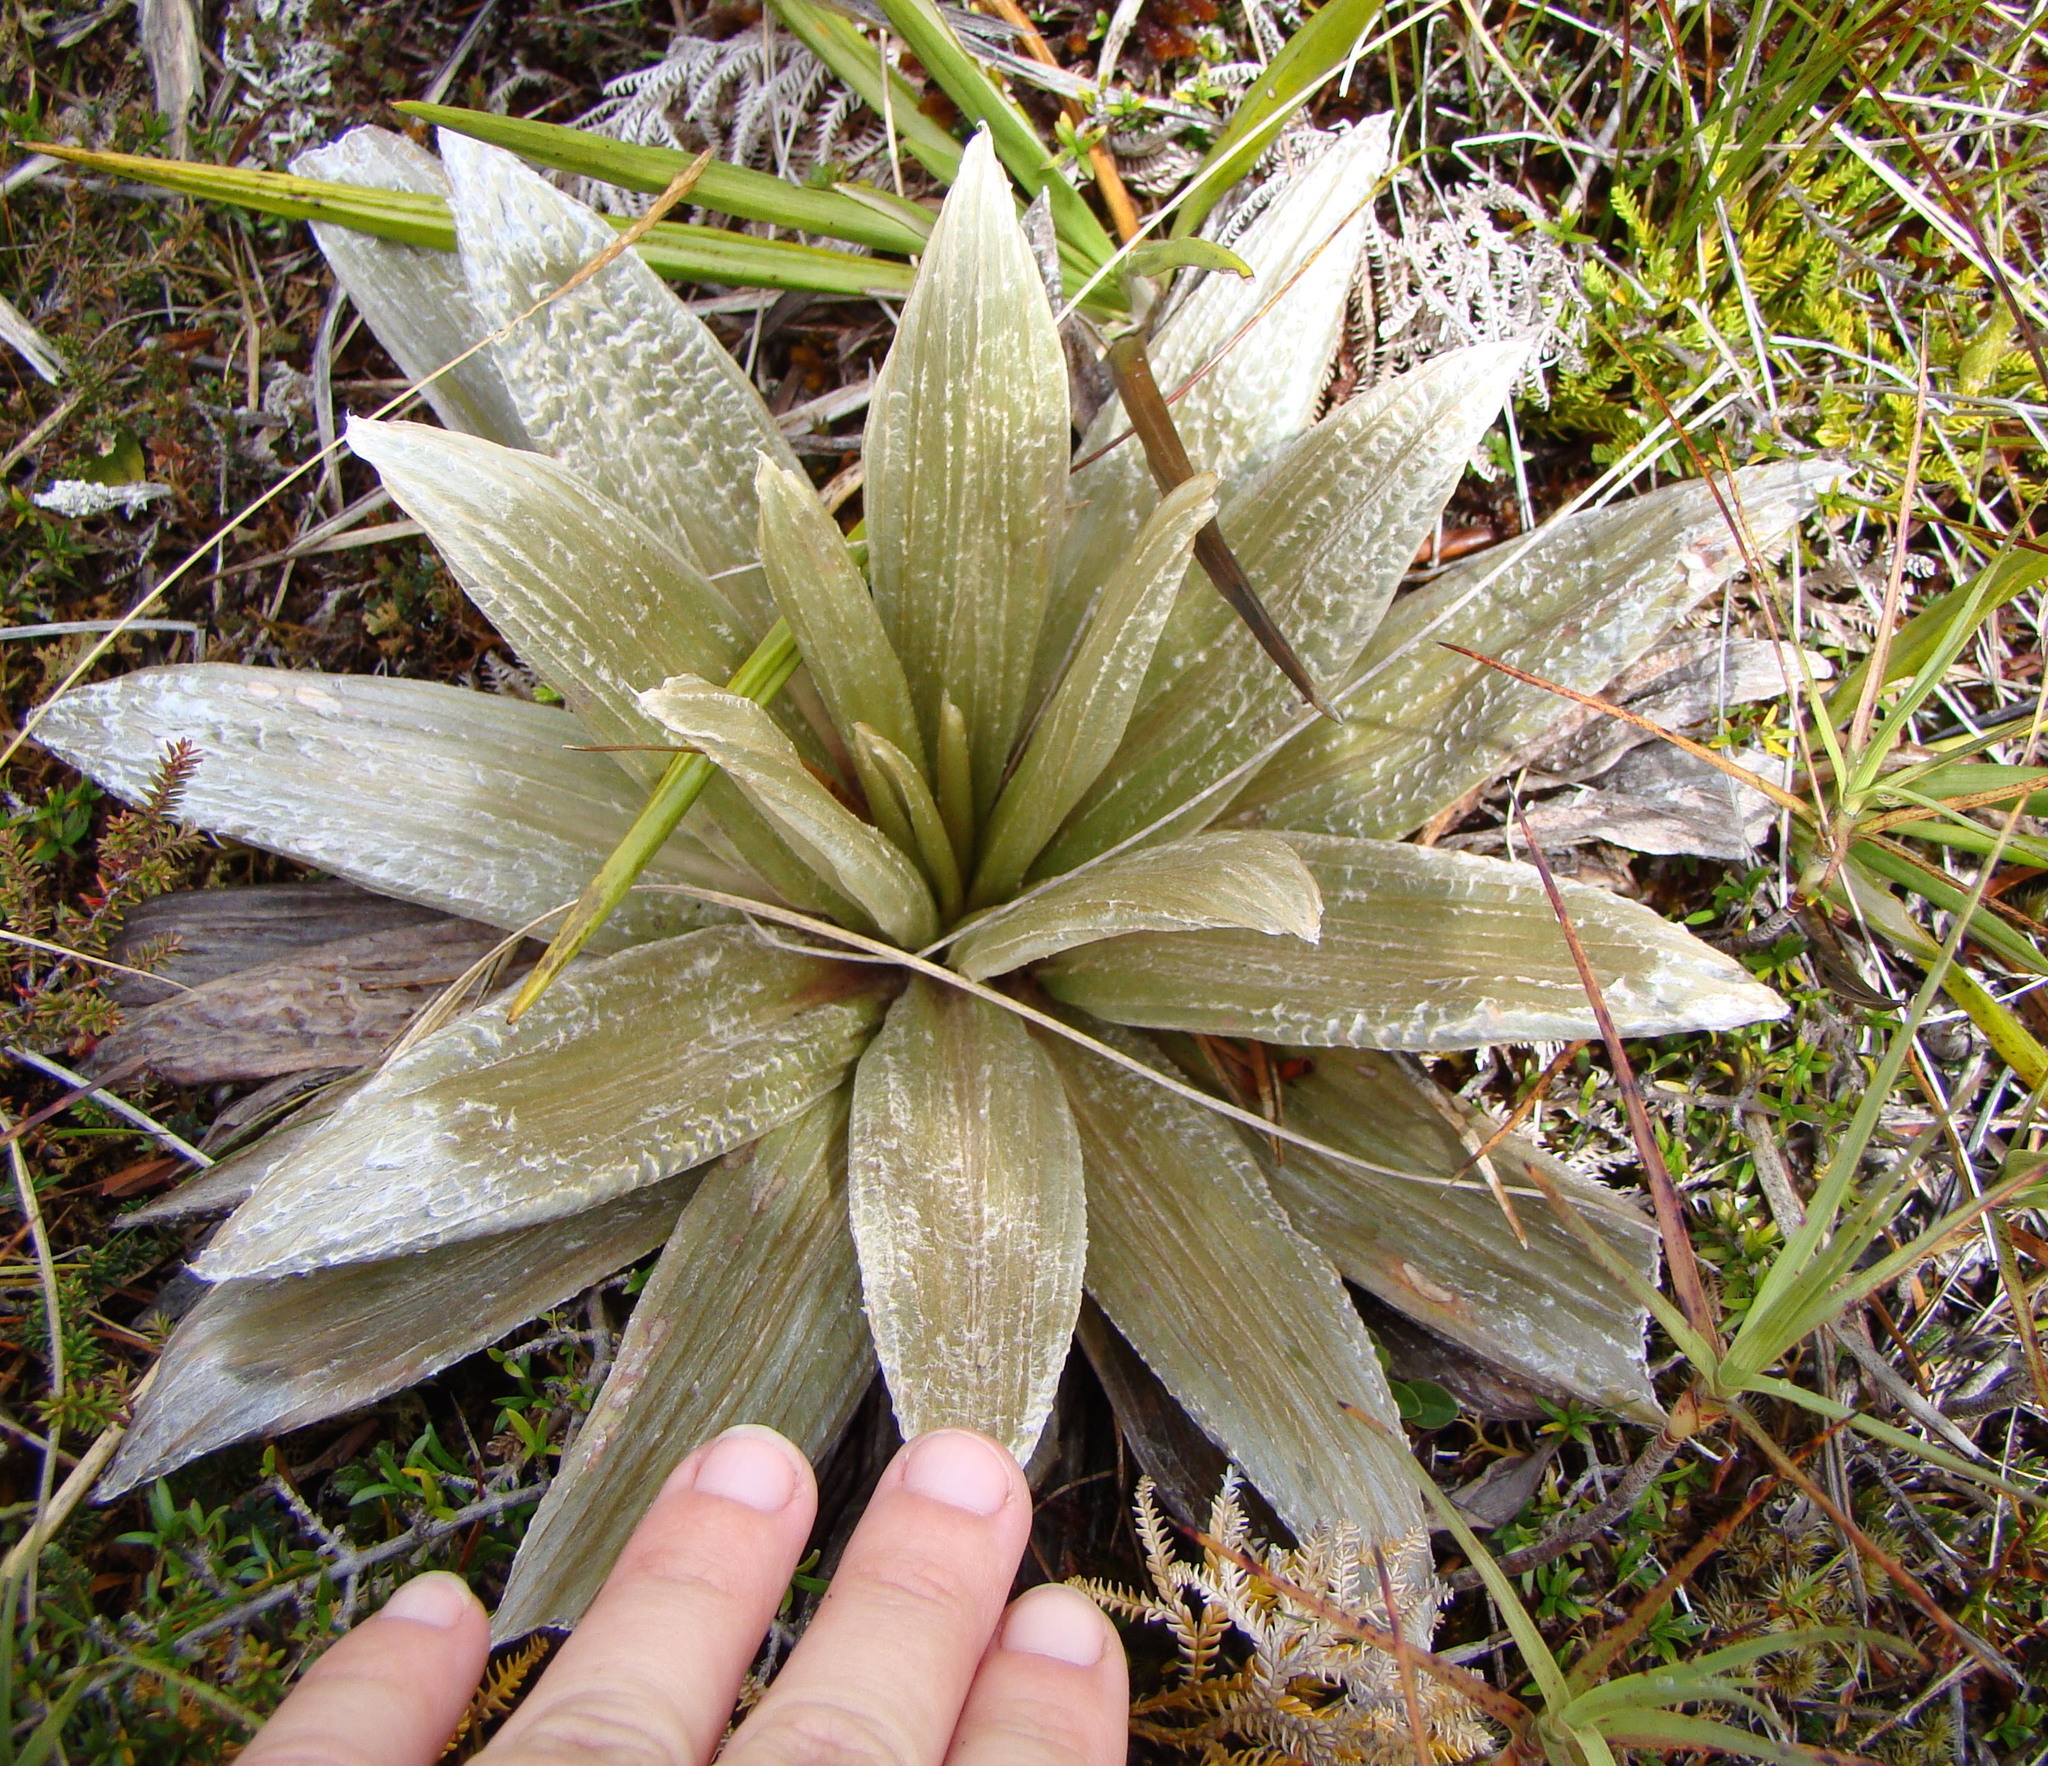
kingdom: Plantae
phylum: Tracheophyta
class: Magnoliopsida
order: Asterales
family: Asteraceae
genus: Celmisia
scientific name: Celmisia semicordata
